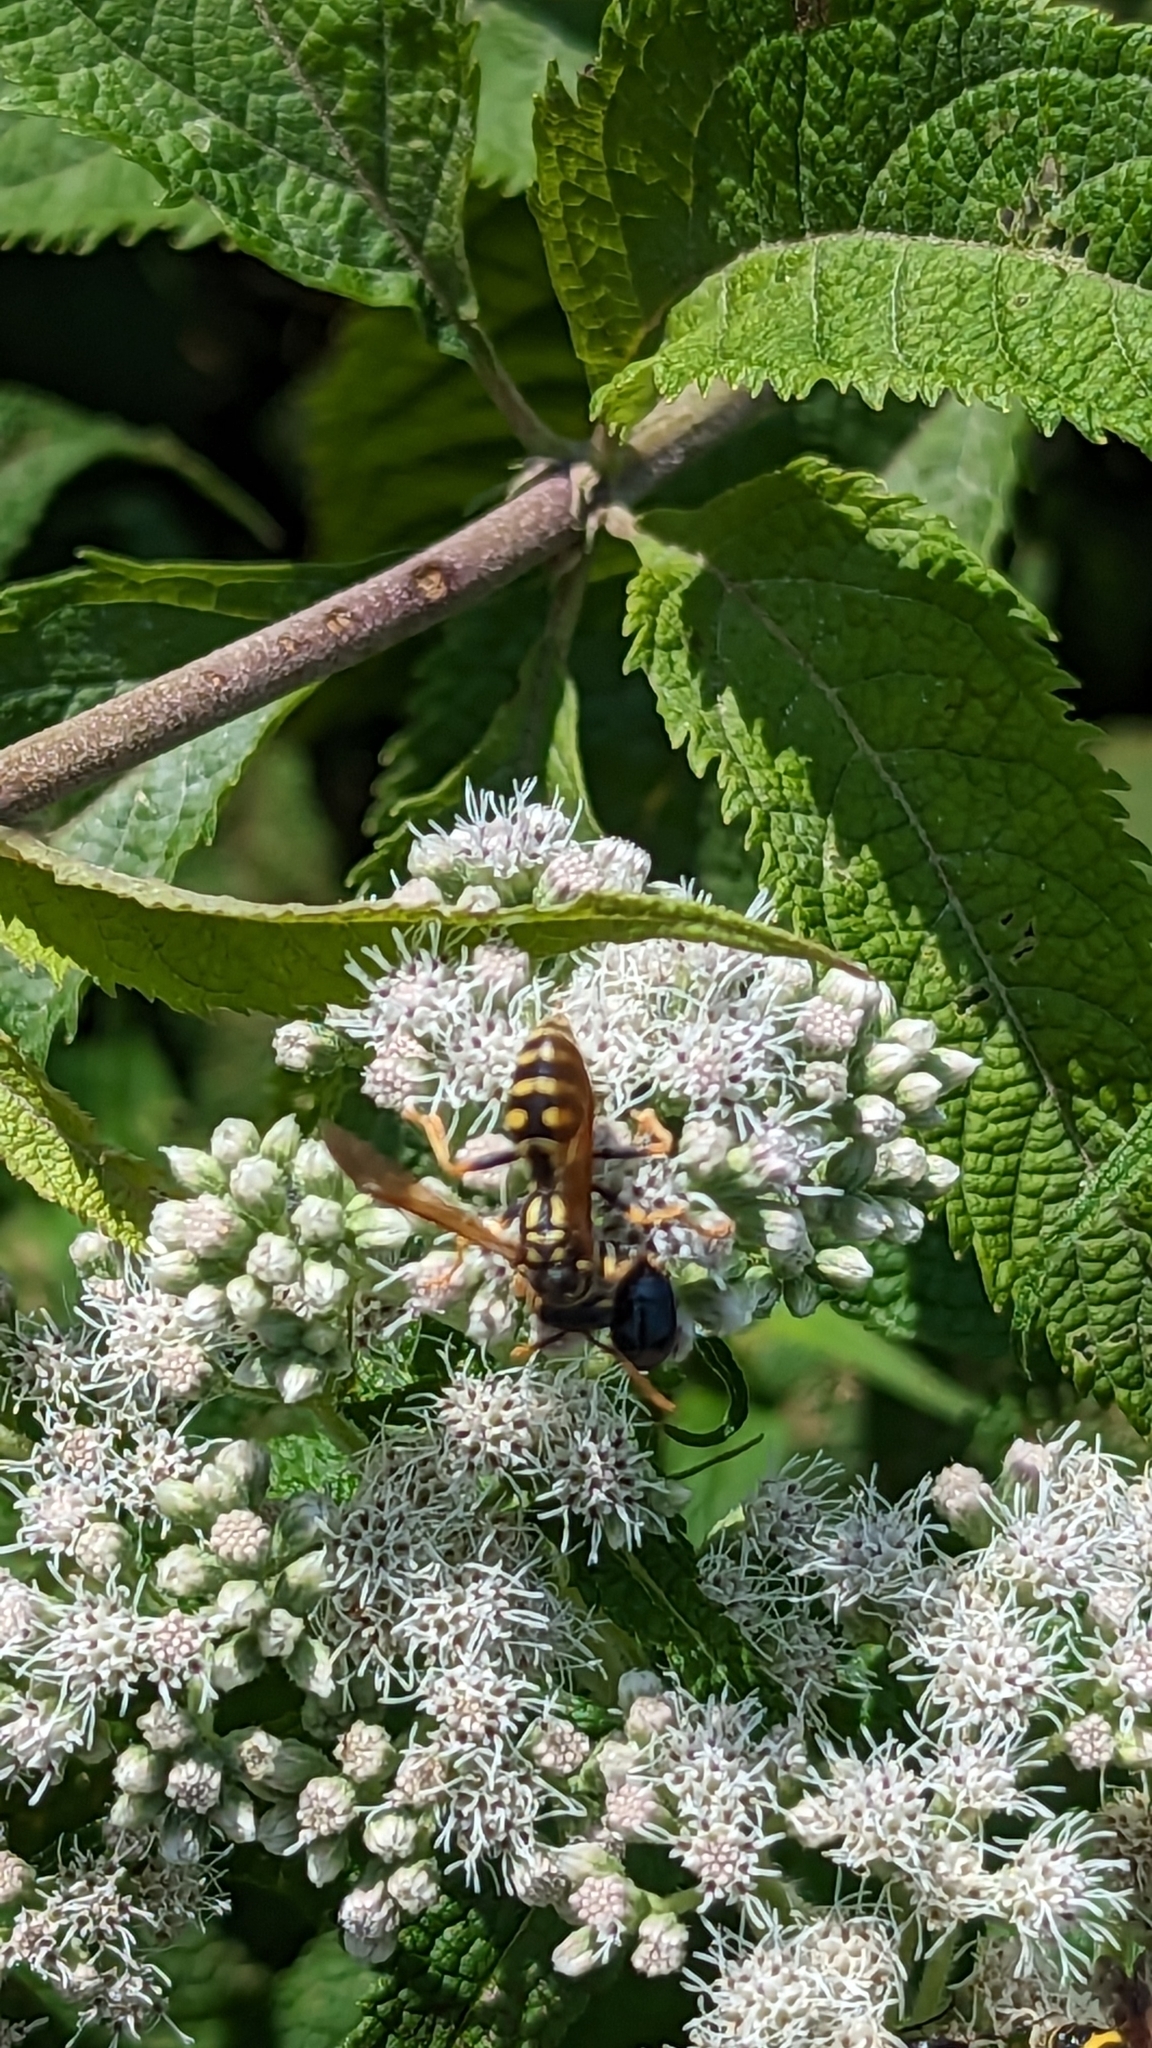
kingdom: Animalia
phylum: Arthropoda
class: Insecta
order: Hymenoptera
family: Eumenidae
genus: Polistes
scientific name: Polistes dominula
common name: Paper wasp
